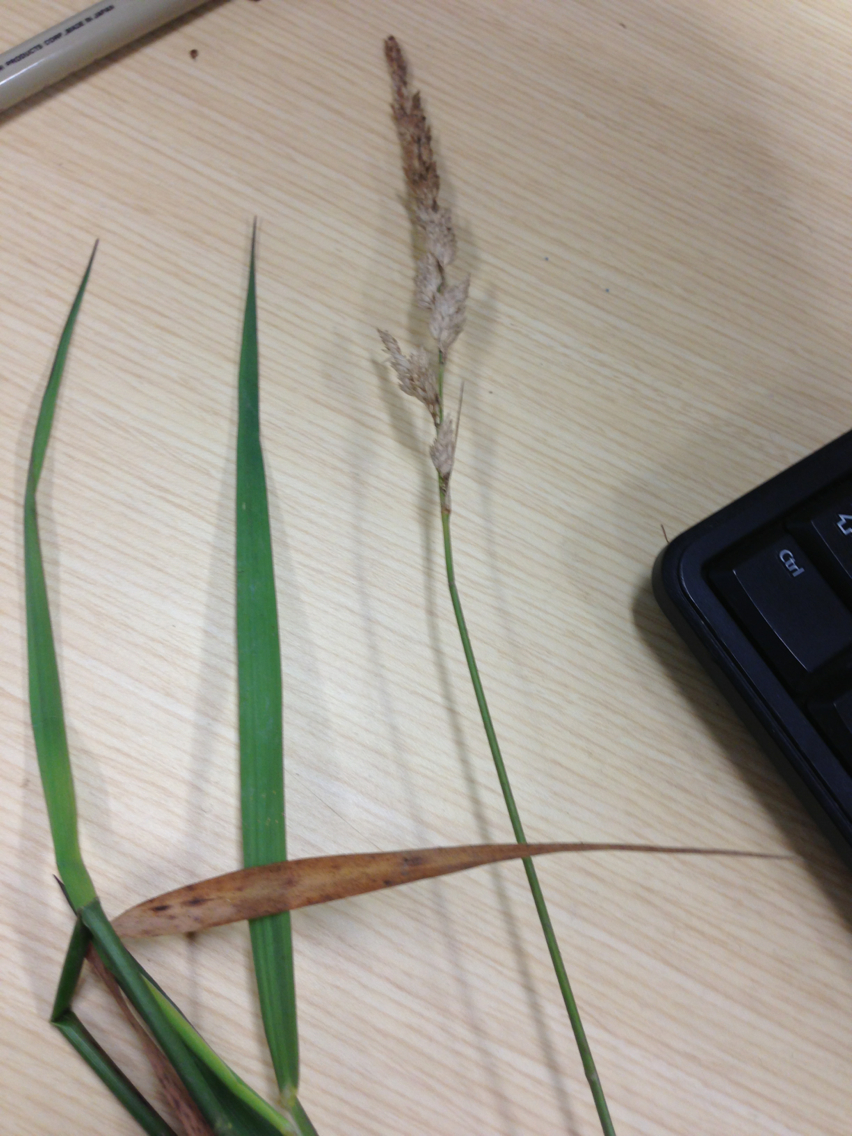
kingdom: Plantae
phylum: Tracheophyta
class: Liliopsida
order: Poales
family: Poaceae
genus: Phalaris
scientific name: Phalaris arundinacea
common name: Reed canary-grass
